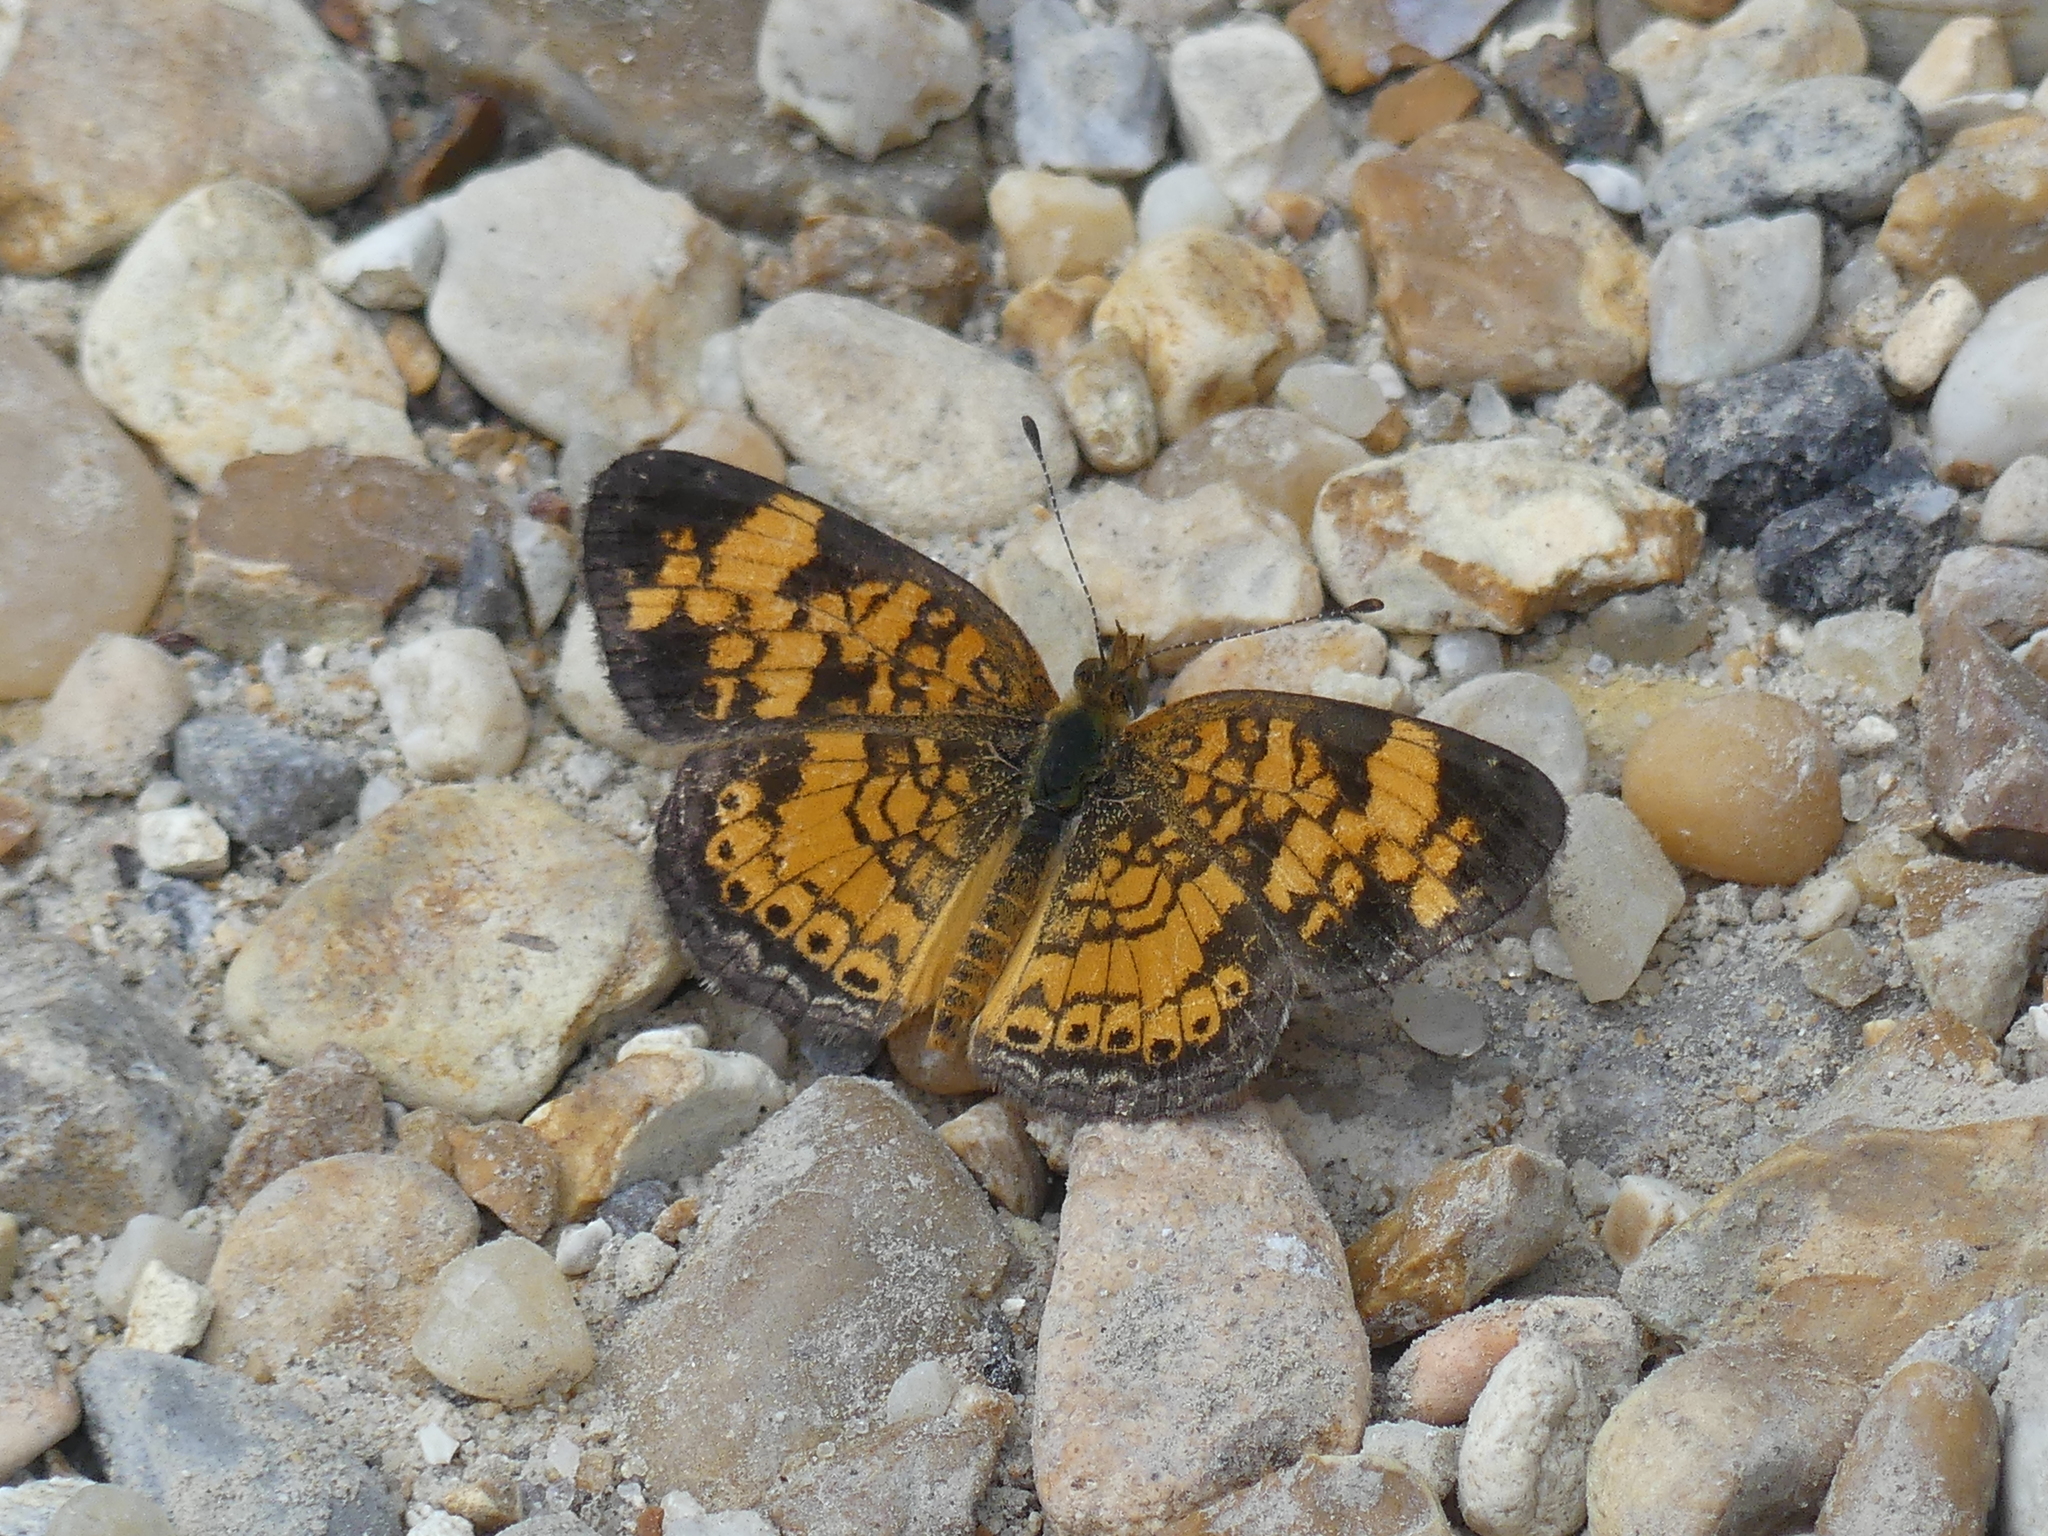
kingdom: Animalia
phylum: Arthropoda
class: Insecta
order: Lepidoptera
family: Nymphalidae
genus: Phyciodes
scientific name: Phyciodes tharos
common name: Pearl crescent
